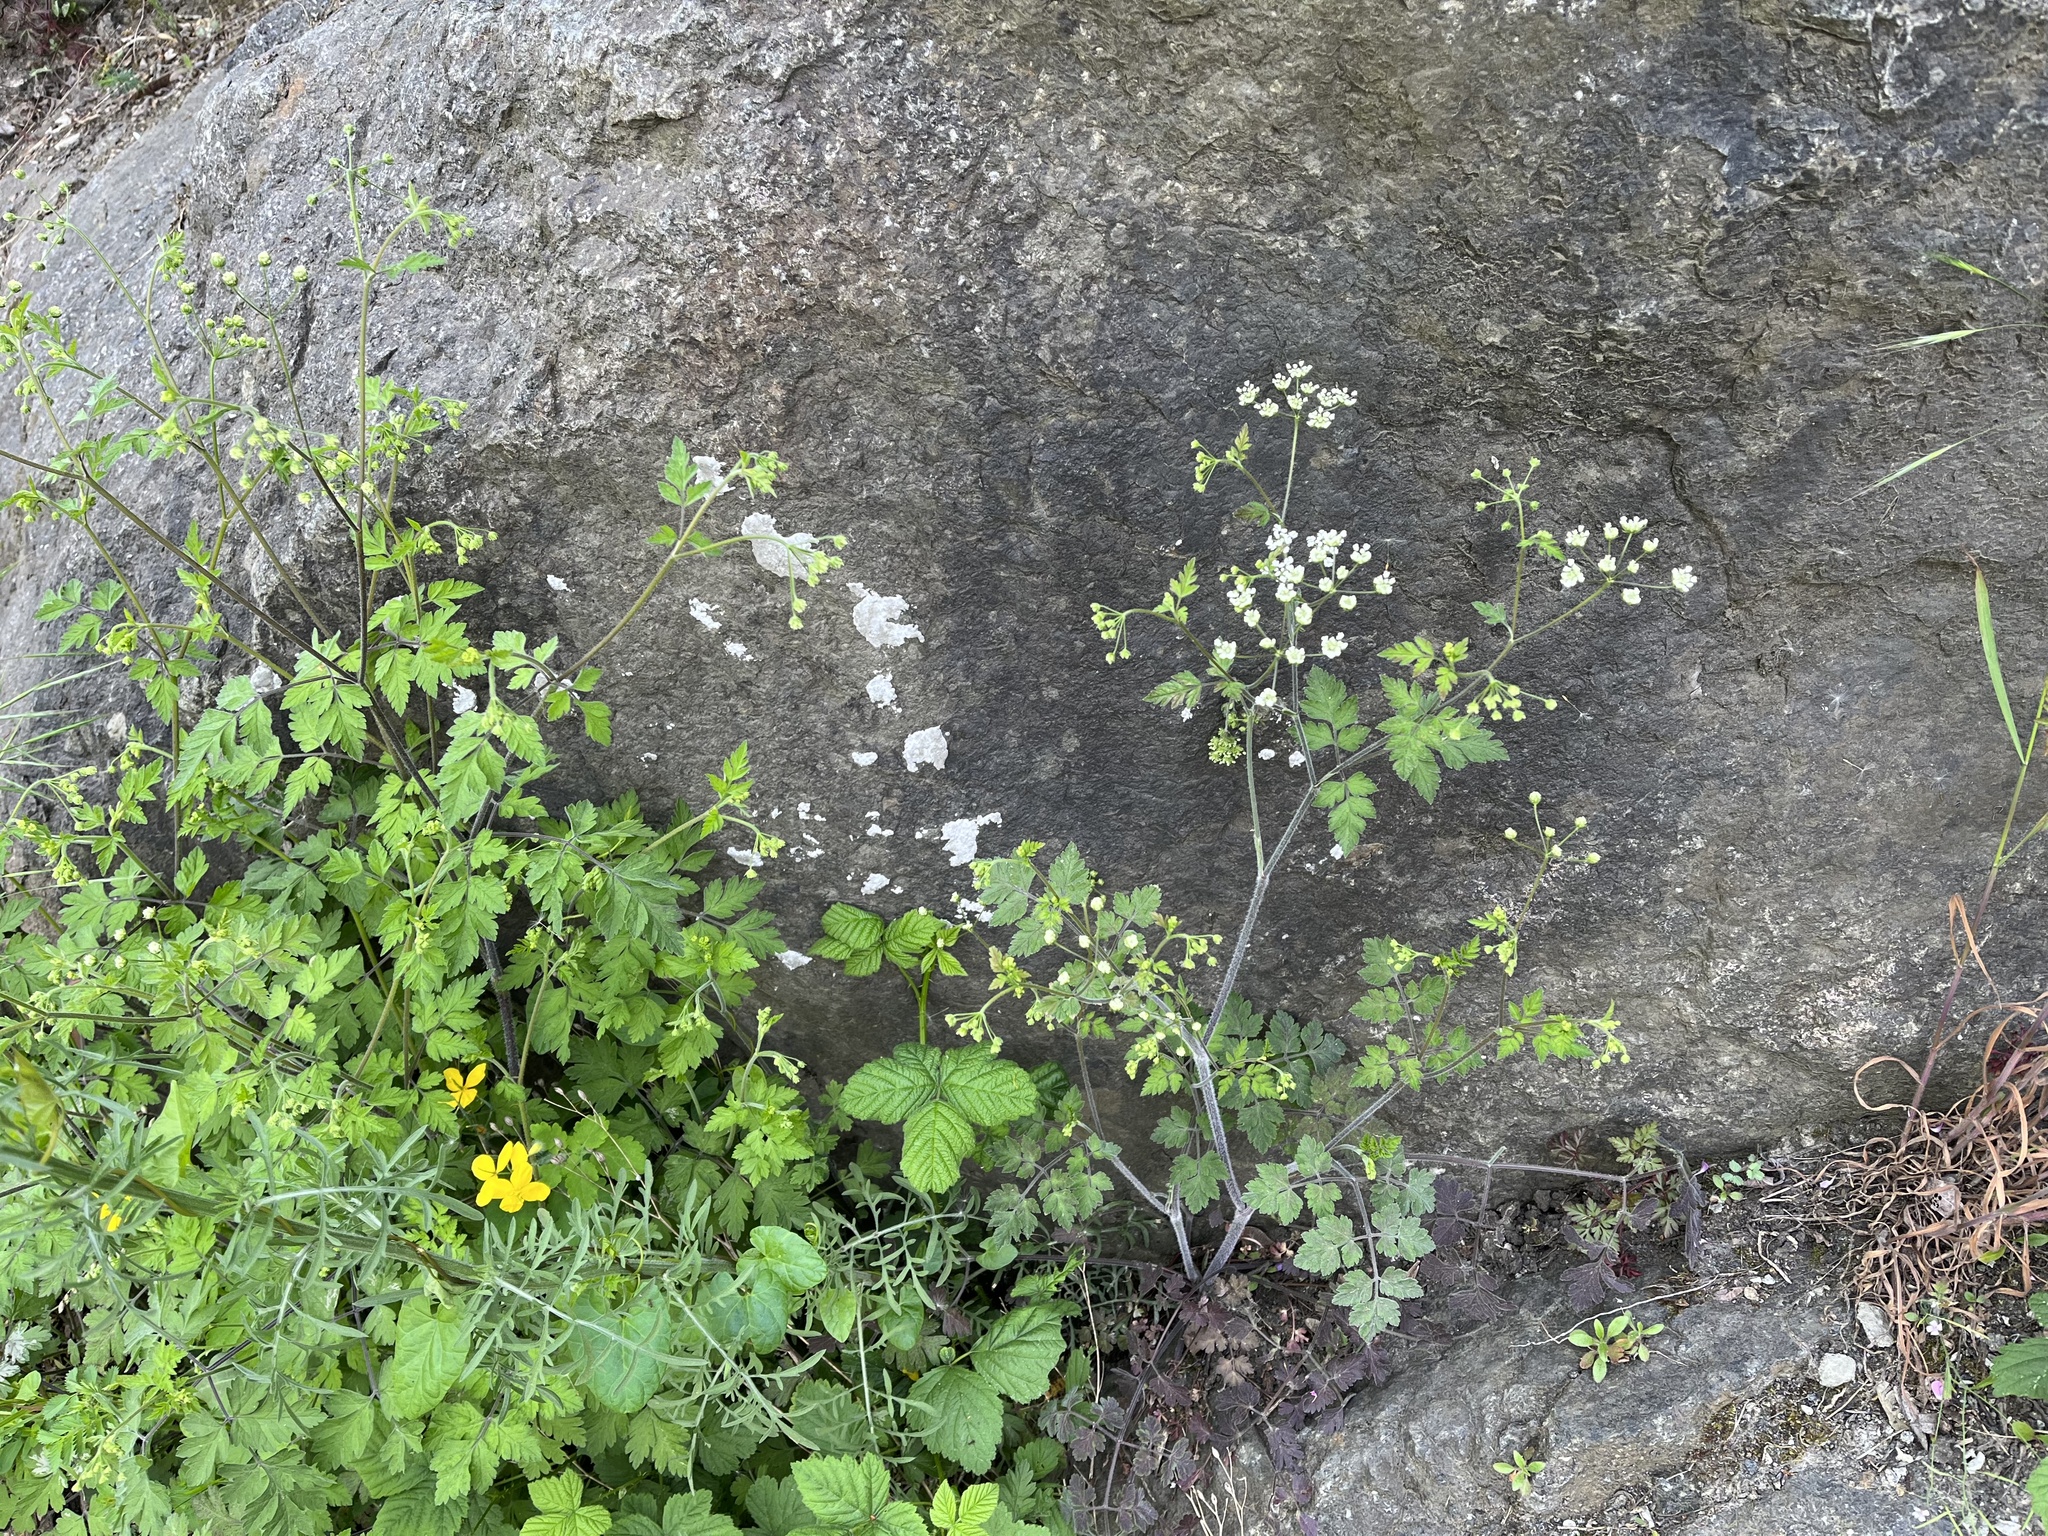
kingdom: Plantae
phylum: Tracheophyta
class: Magnoliopsida
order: Apiales
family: Apiaceae
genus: Chaerophyllum
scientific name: Chaerophyllum temulum
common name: Rough chervil
